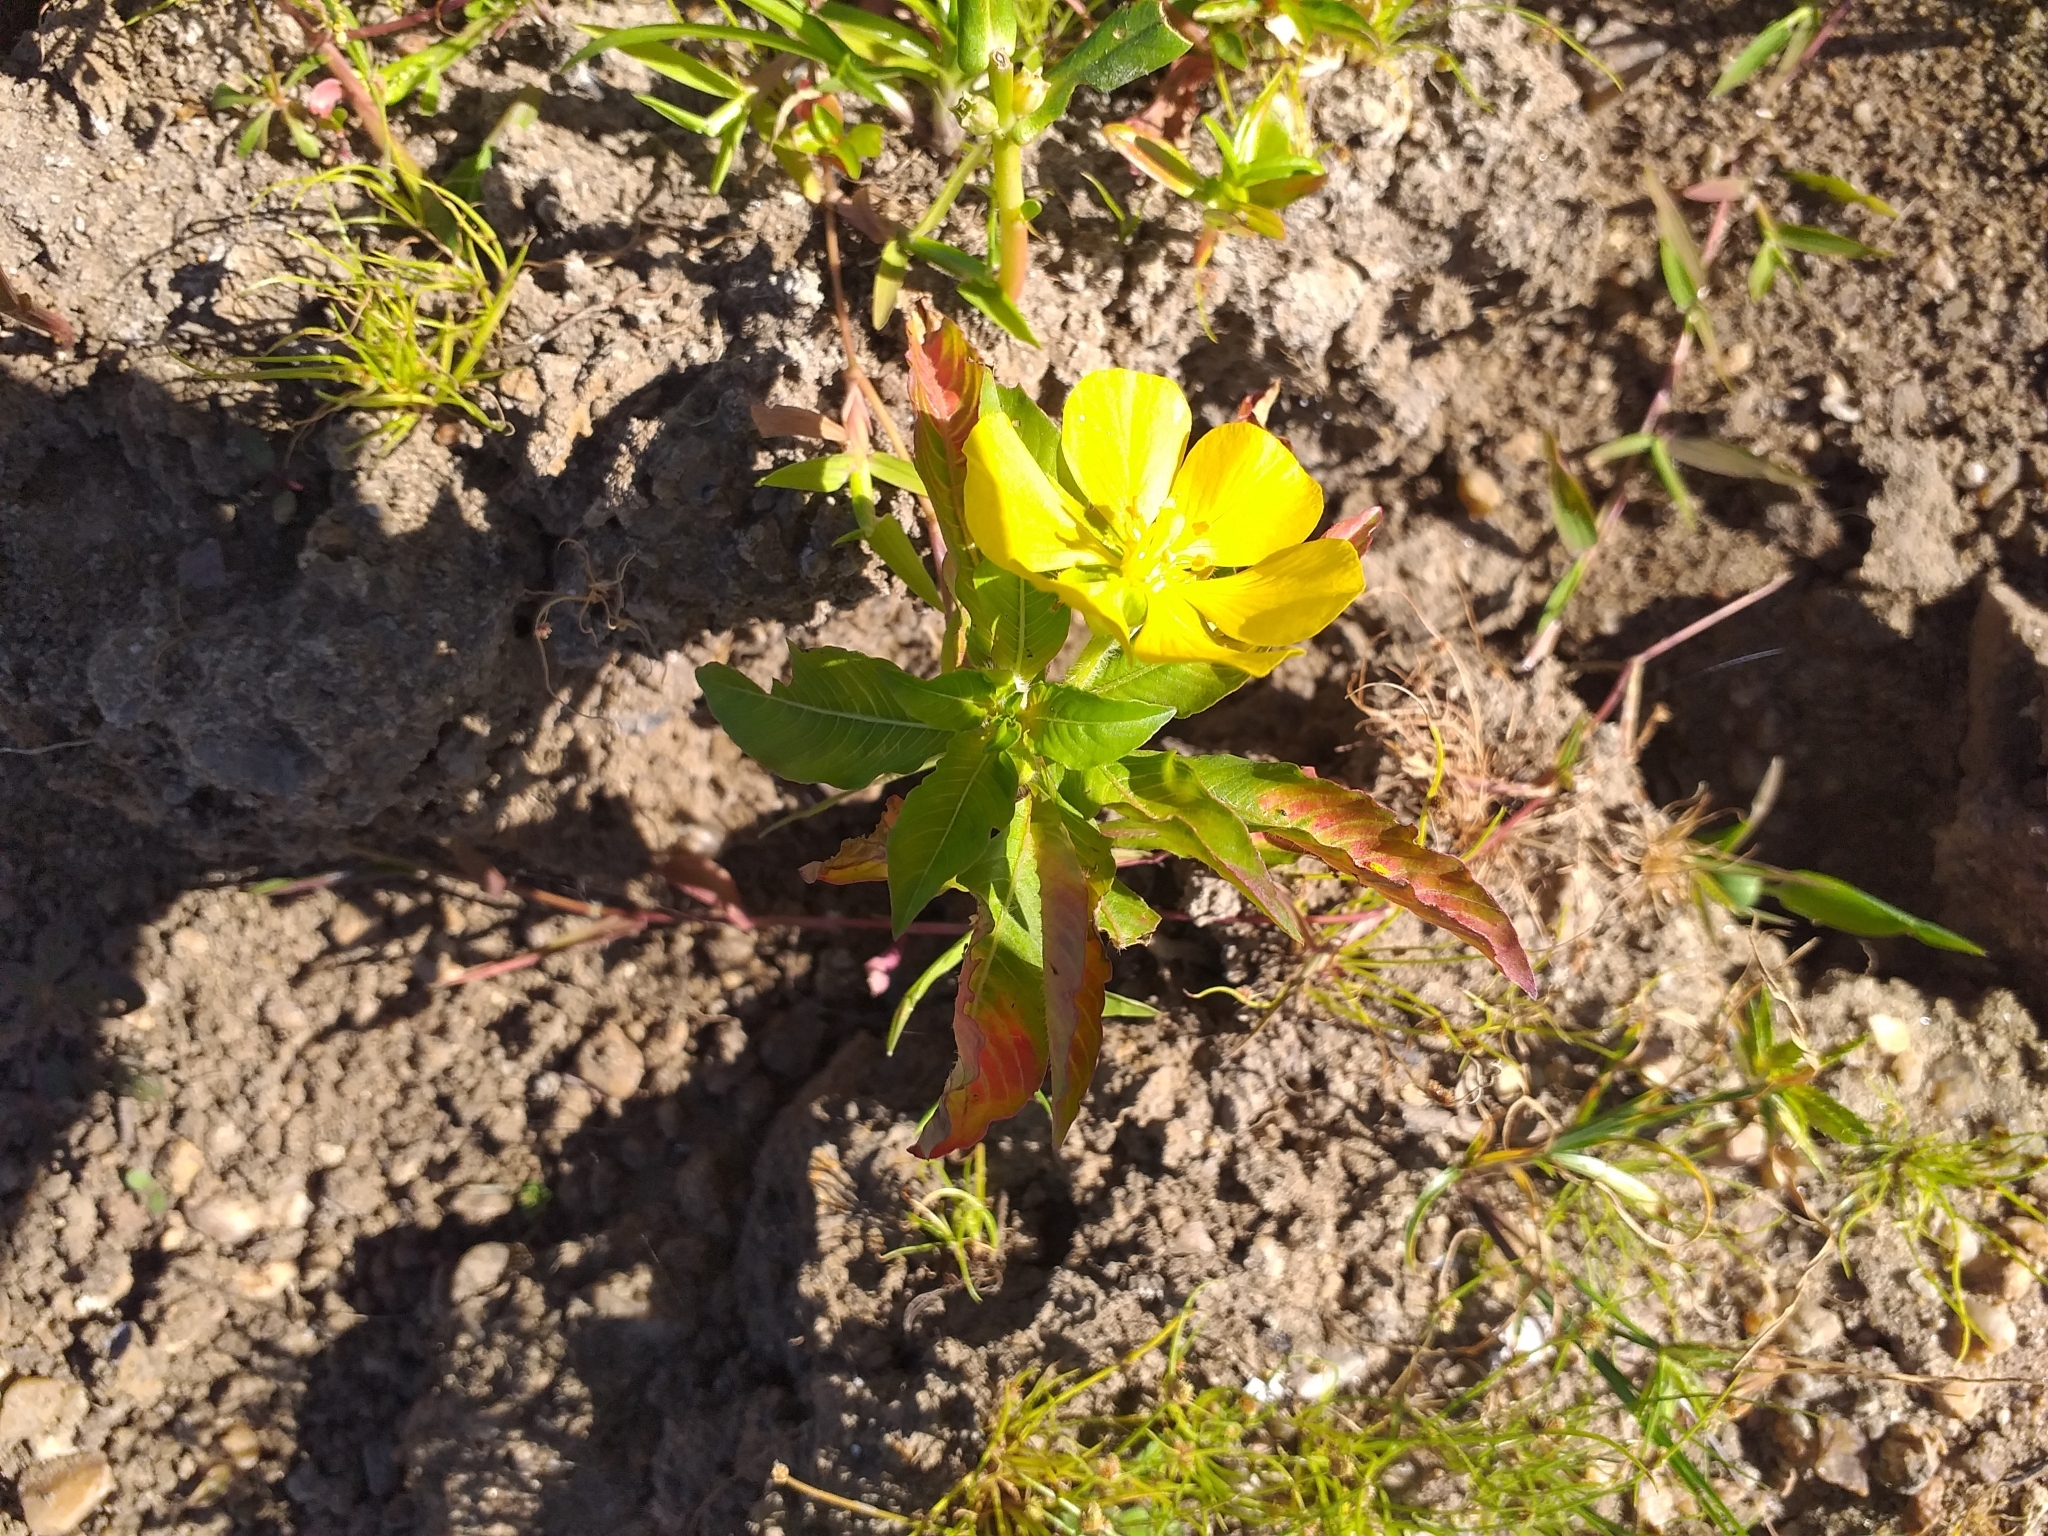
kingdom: Plantae
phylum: Tracheophyta
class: Magnoliopsida
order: Myrtales
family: Onagraceae
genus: Ludwigia
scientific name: Ludwigia leptocarpa
